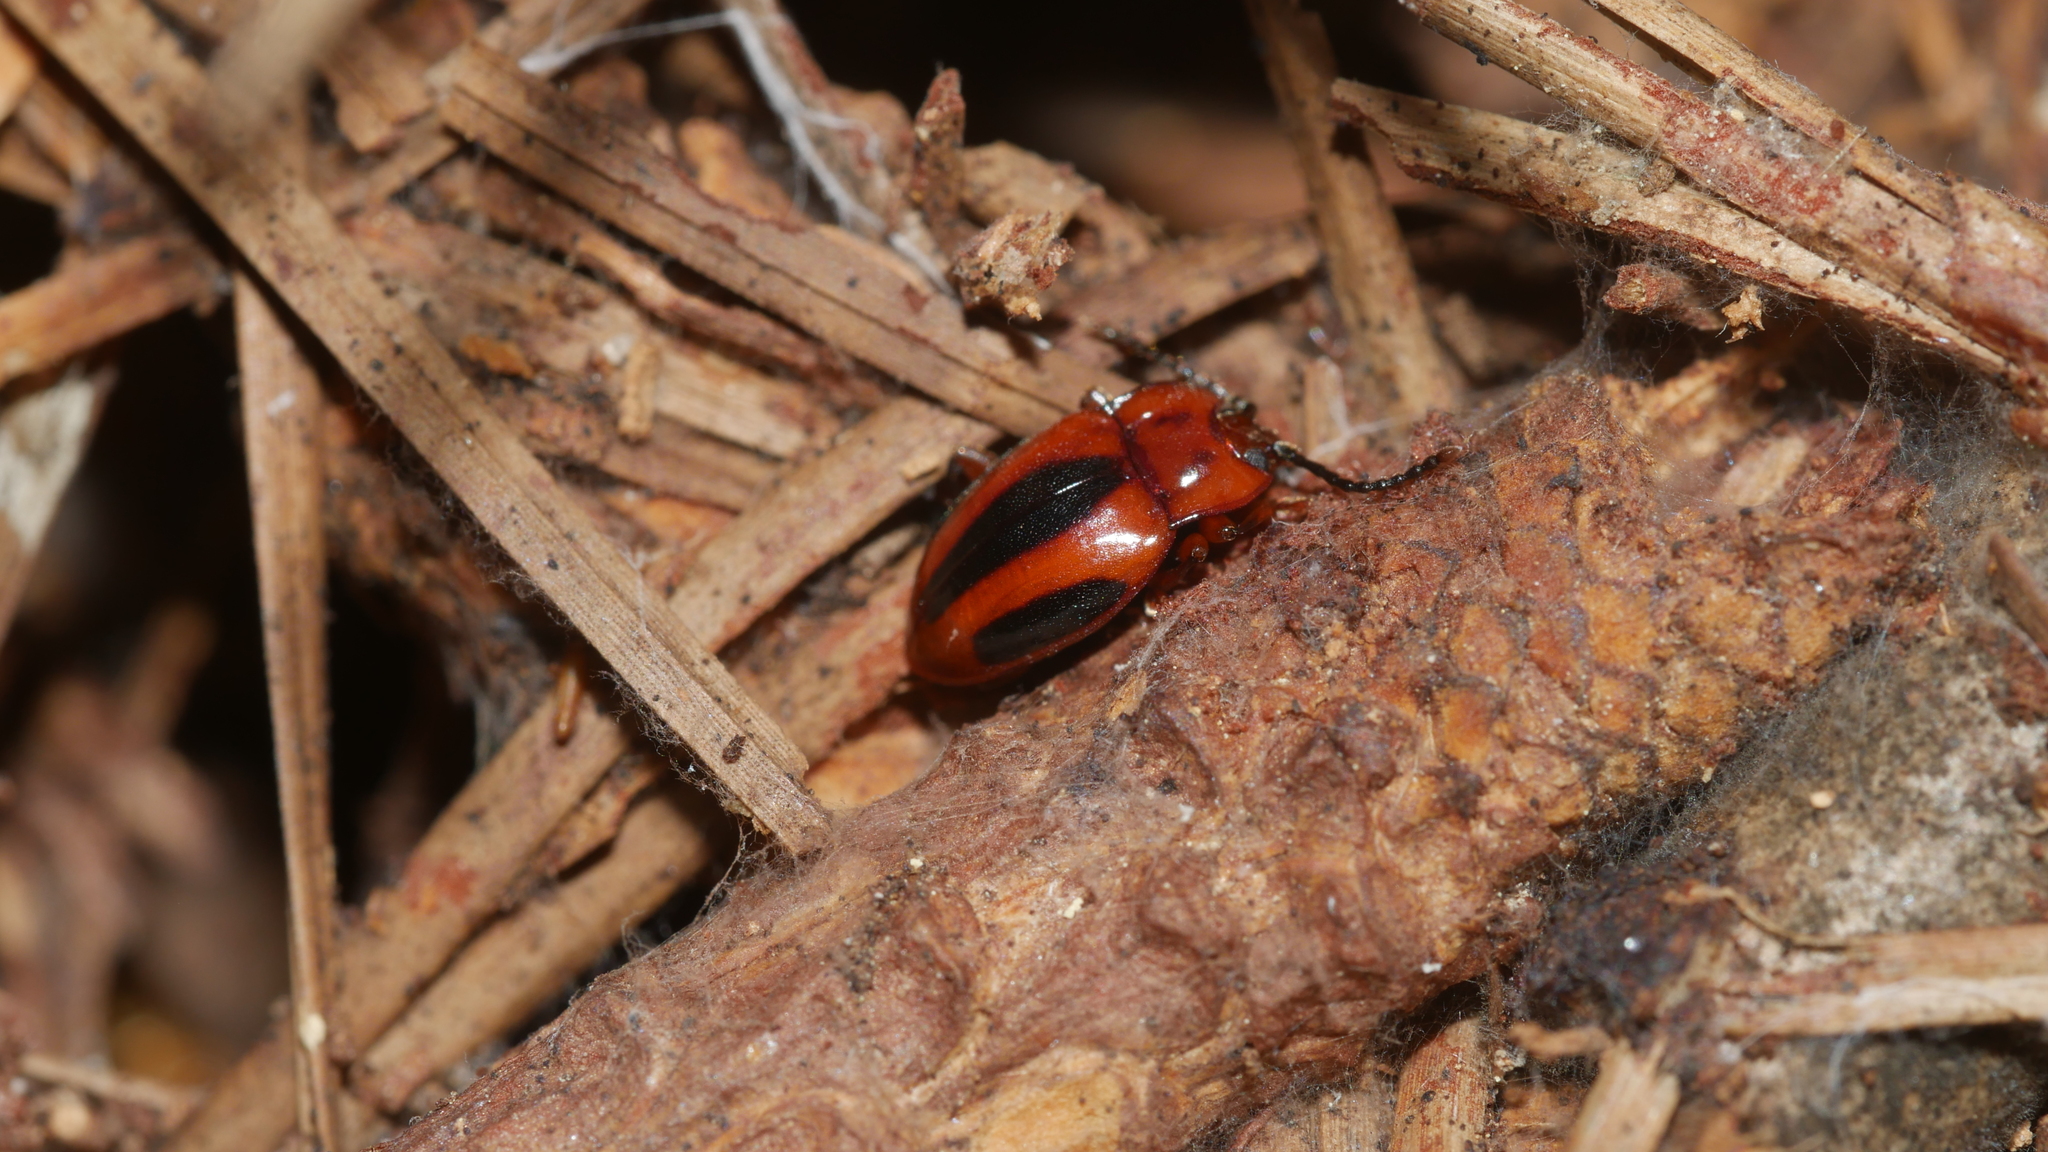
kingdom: Animalia
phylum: Arthropoda
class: Insecta
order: Coleoptera
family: Endomychidae
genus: Aphorista
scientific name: Aphorista vittata
